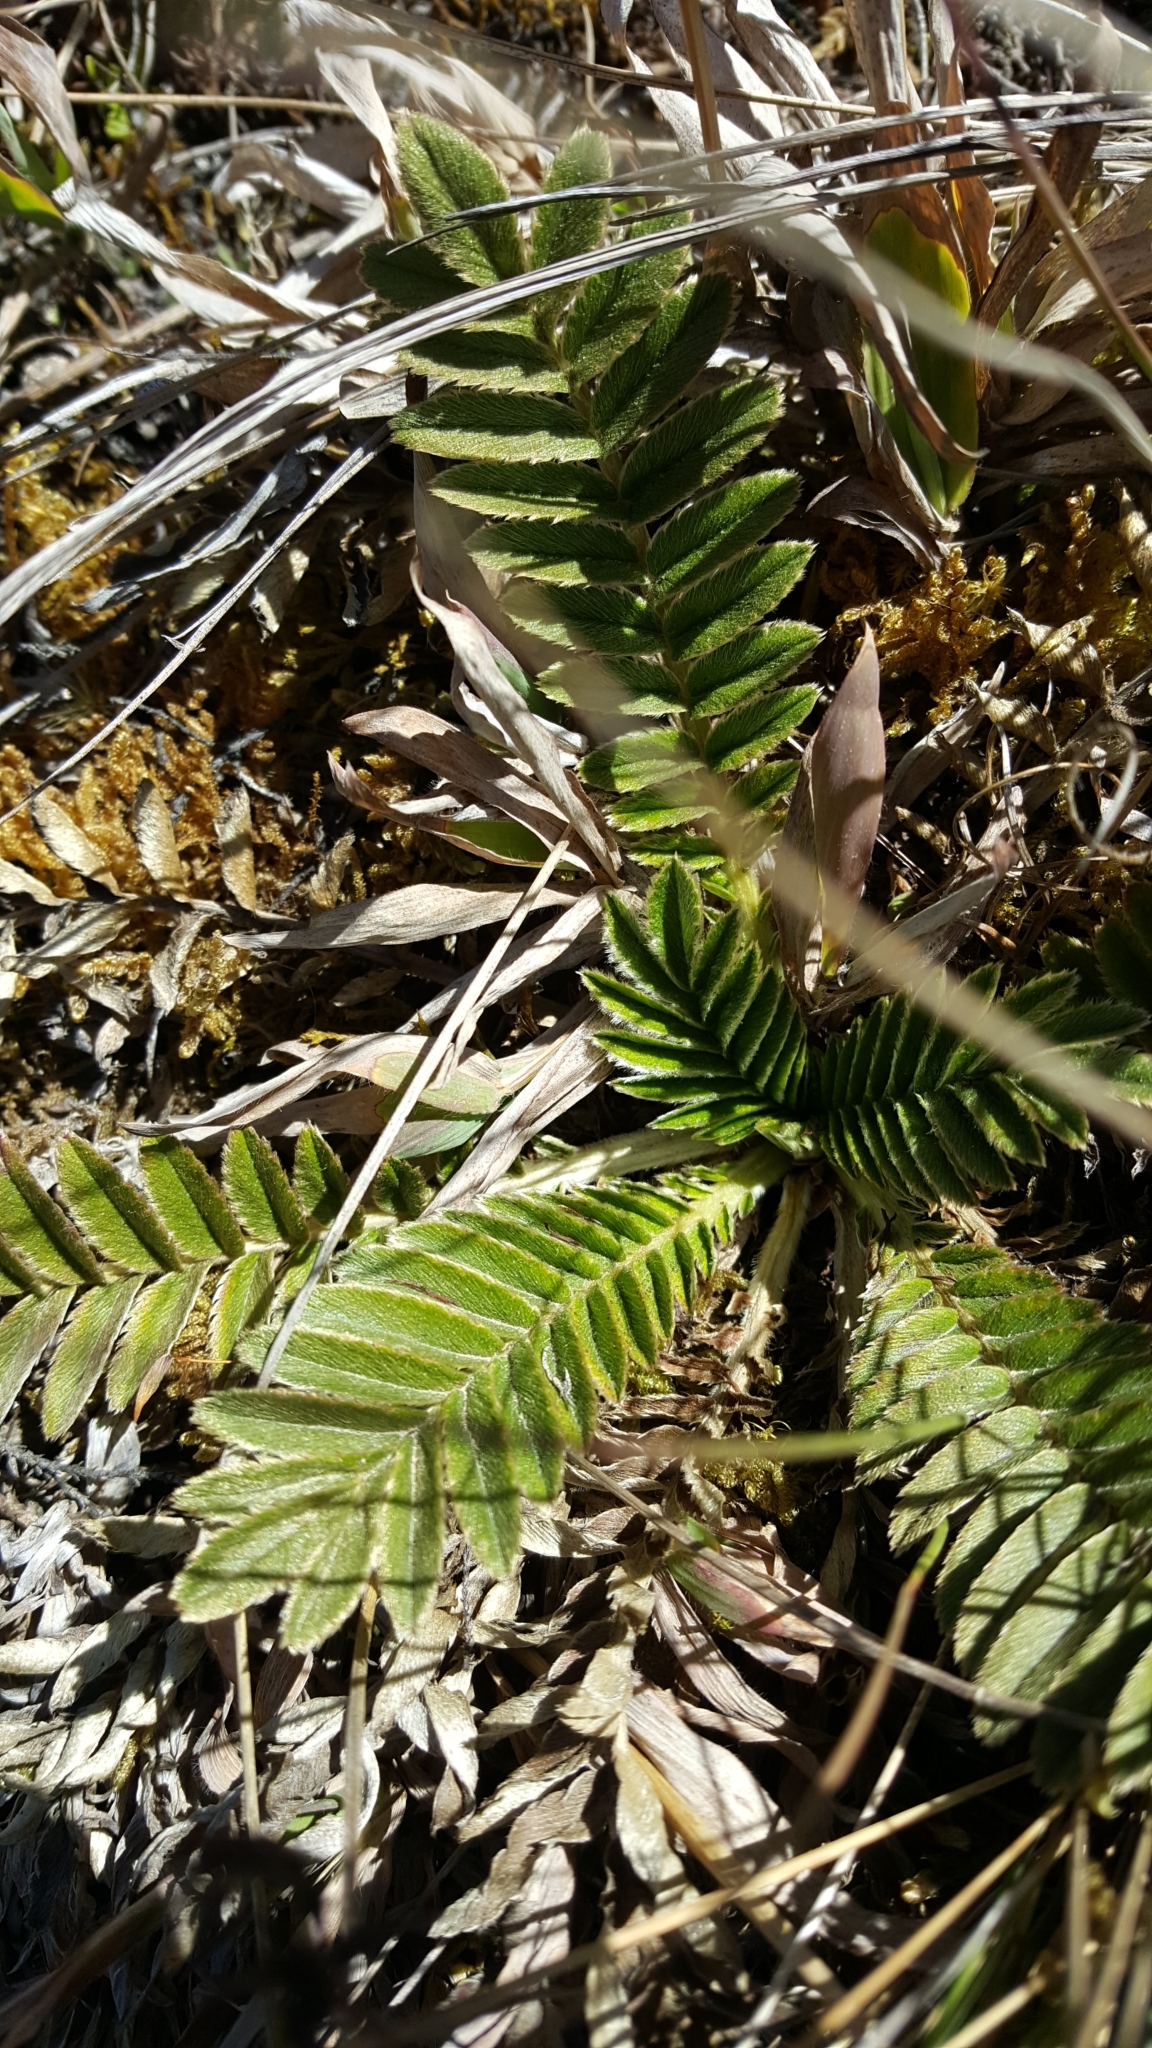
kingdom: Plantae
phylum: Tracheophyta
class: Magnoliopsida
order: Rosales
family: Rosaceae
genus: Acaena
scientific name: Acaena cylindristachya
